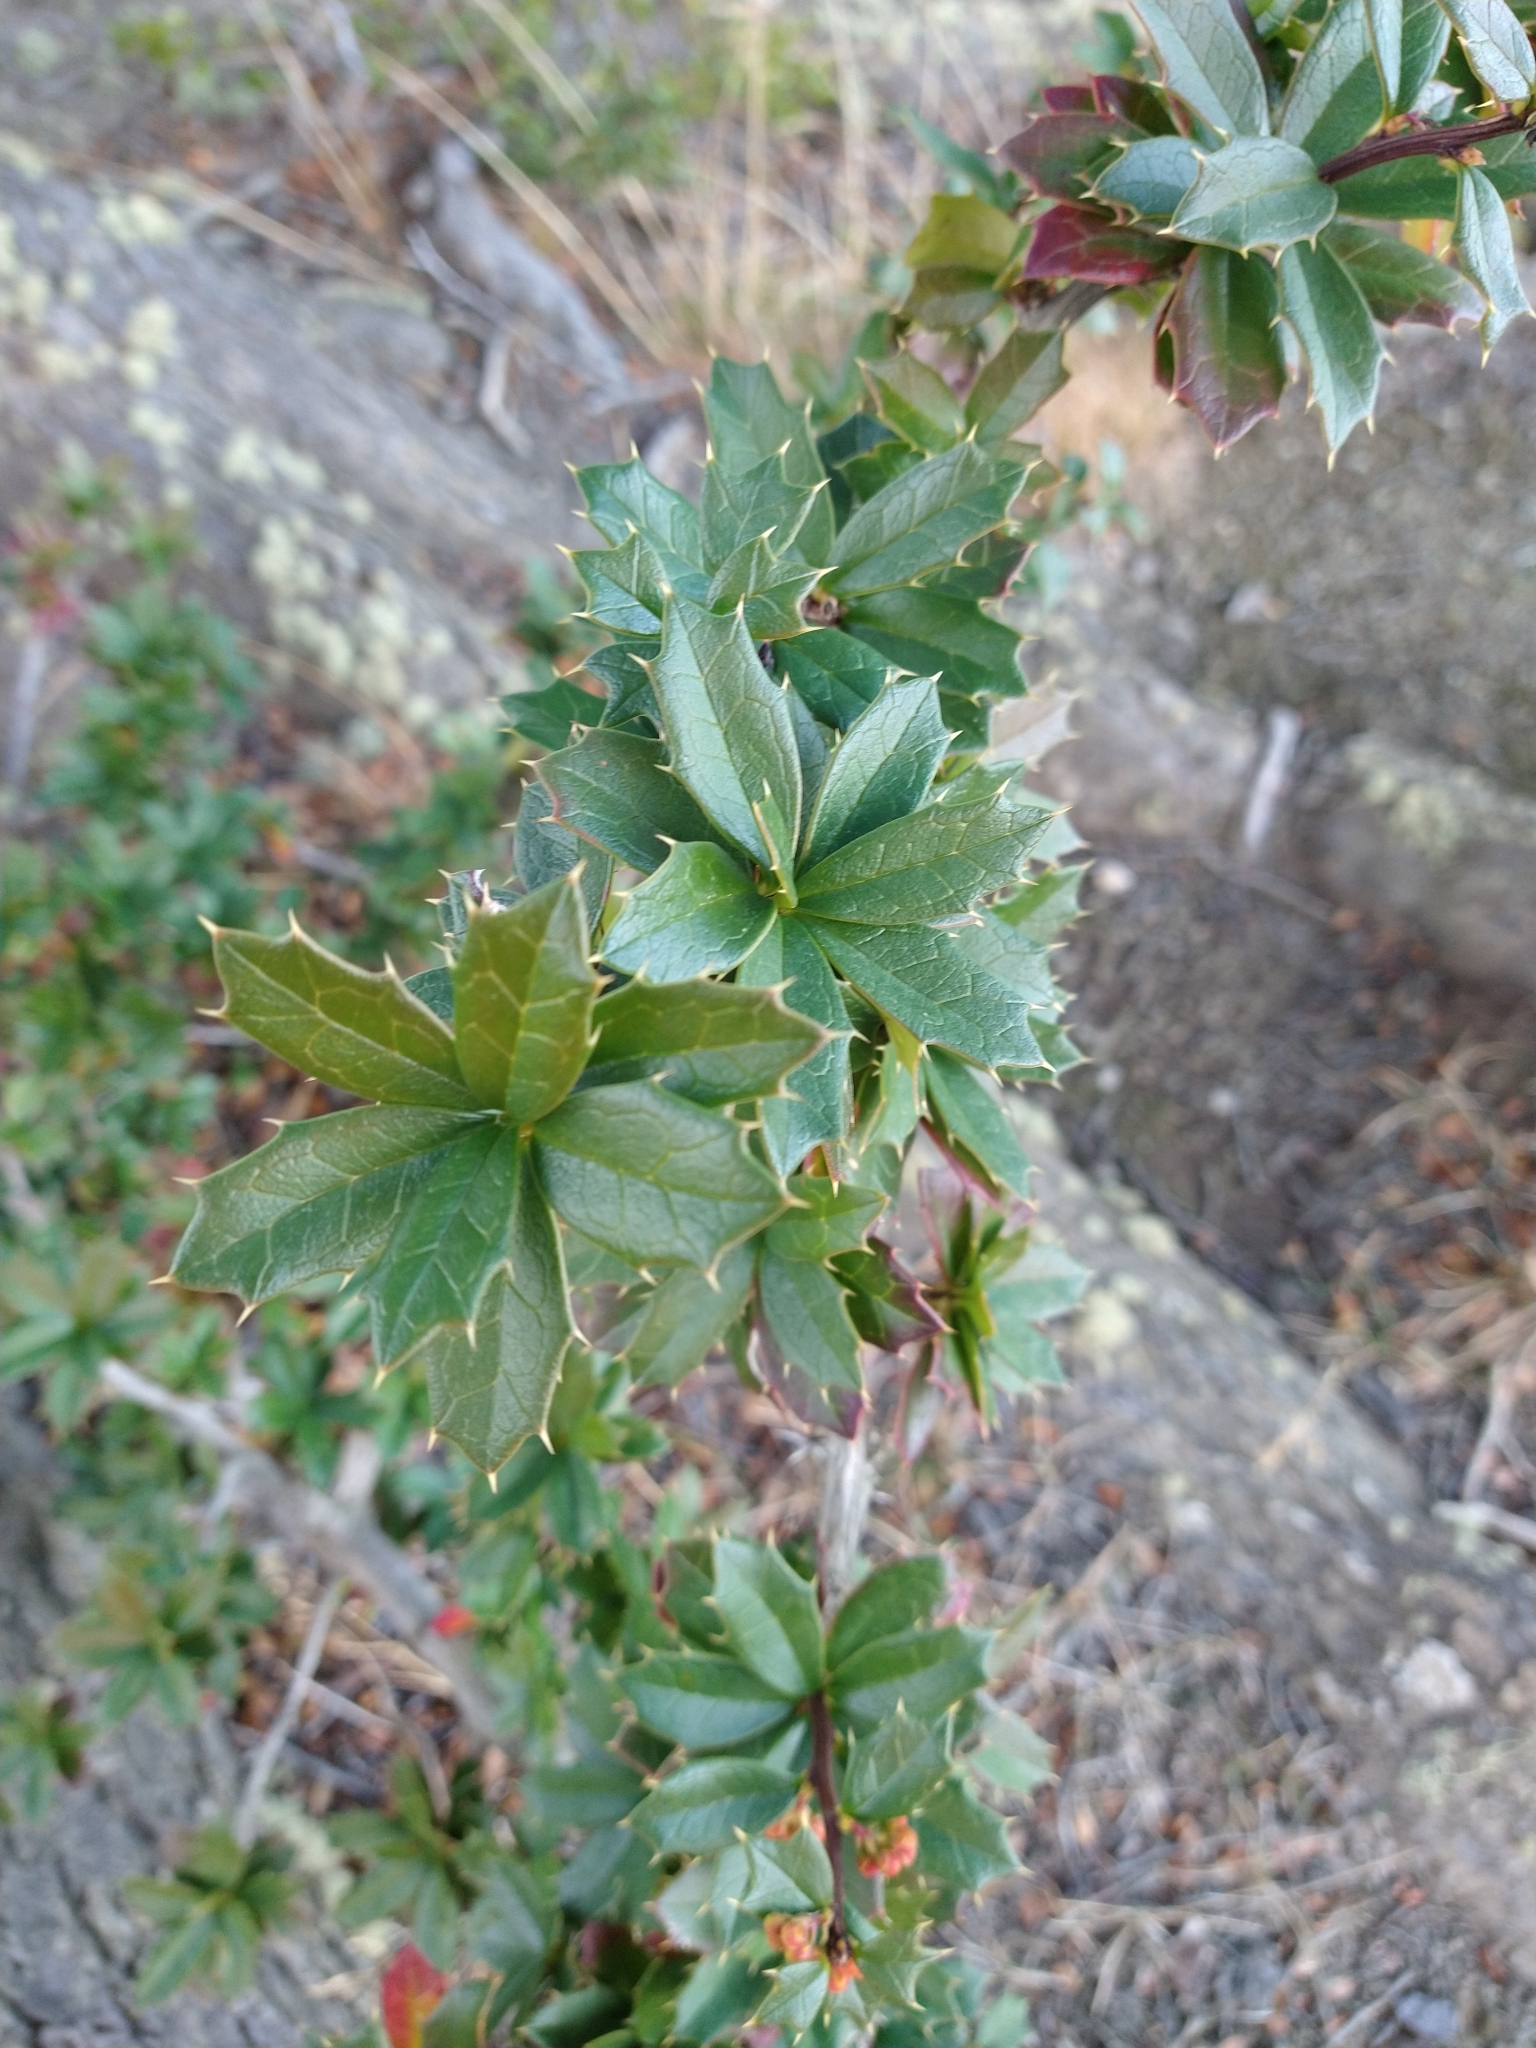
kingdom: Plantae
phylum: Tracheophyta
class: Magnoliopsida
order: Ranunculales
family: Berberidaceae
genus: Berberis
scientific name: Berberis ilicifolia
